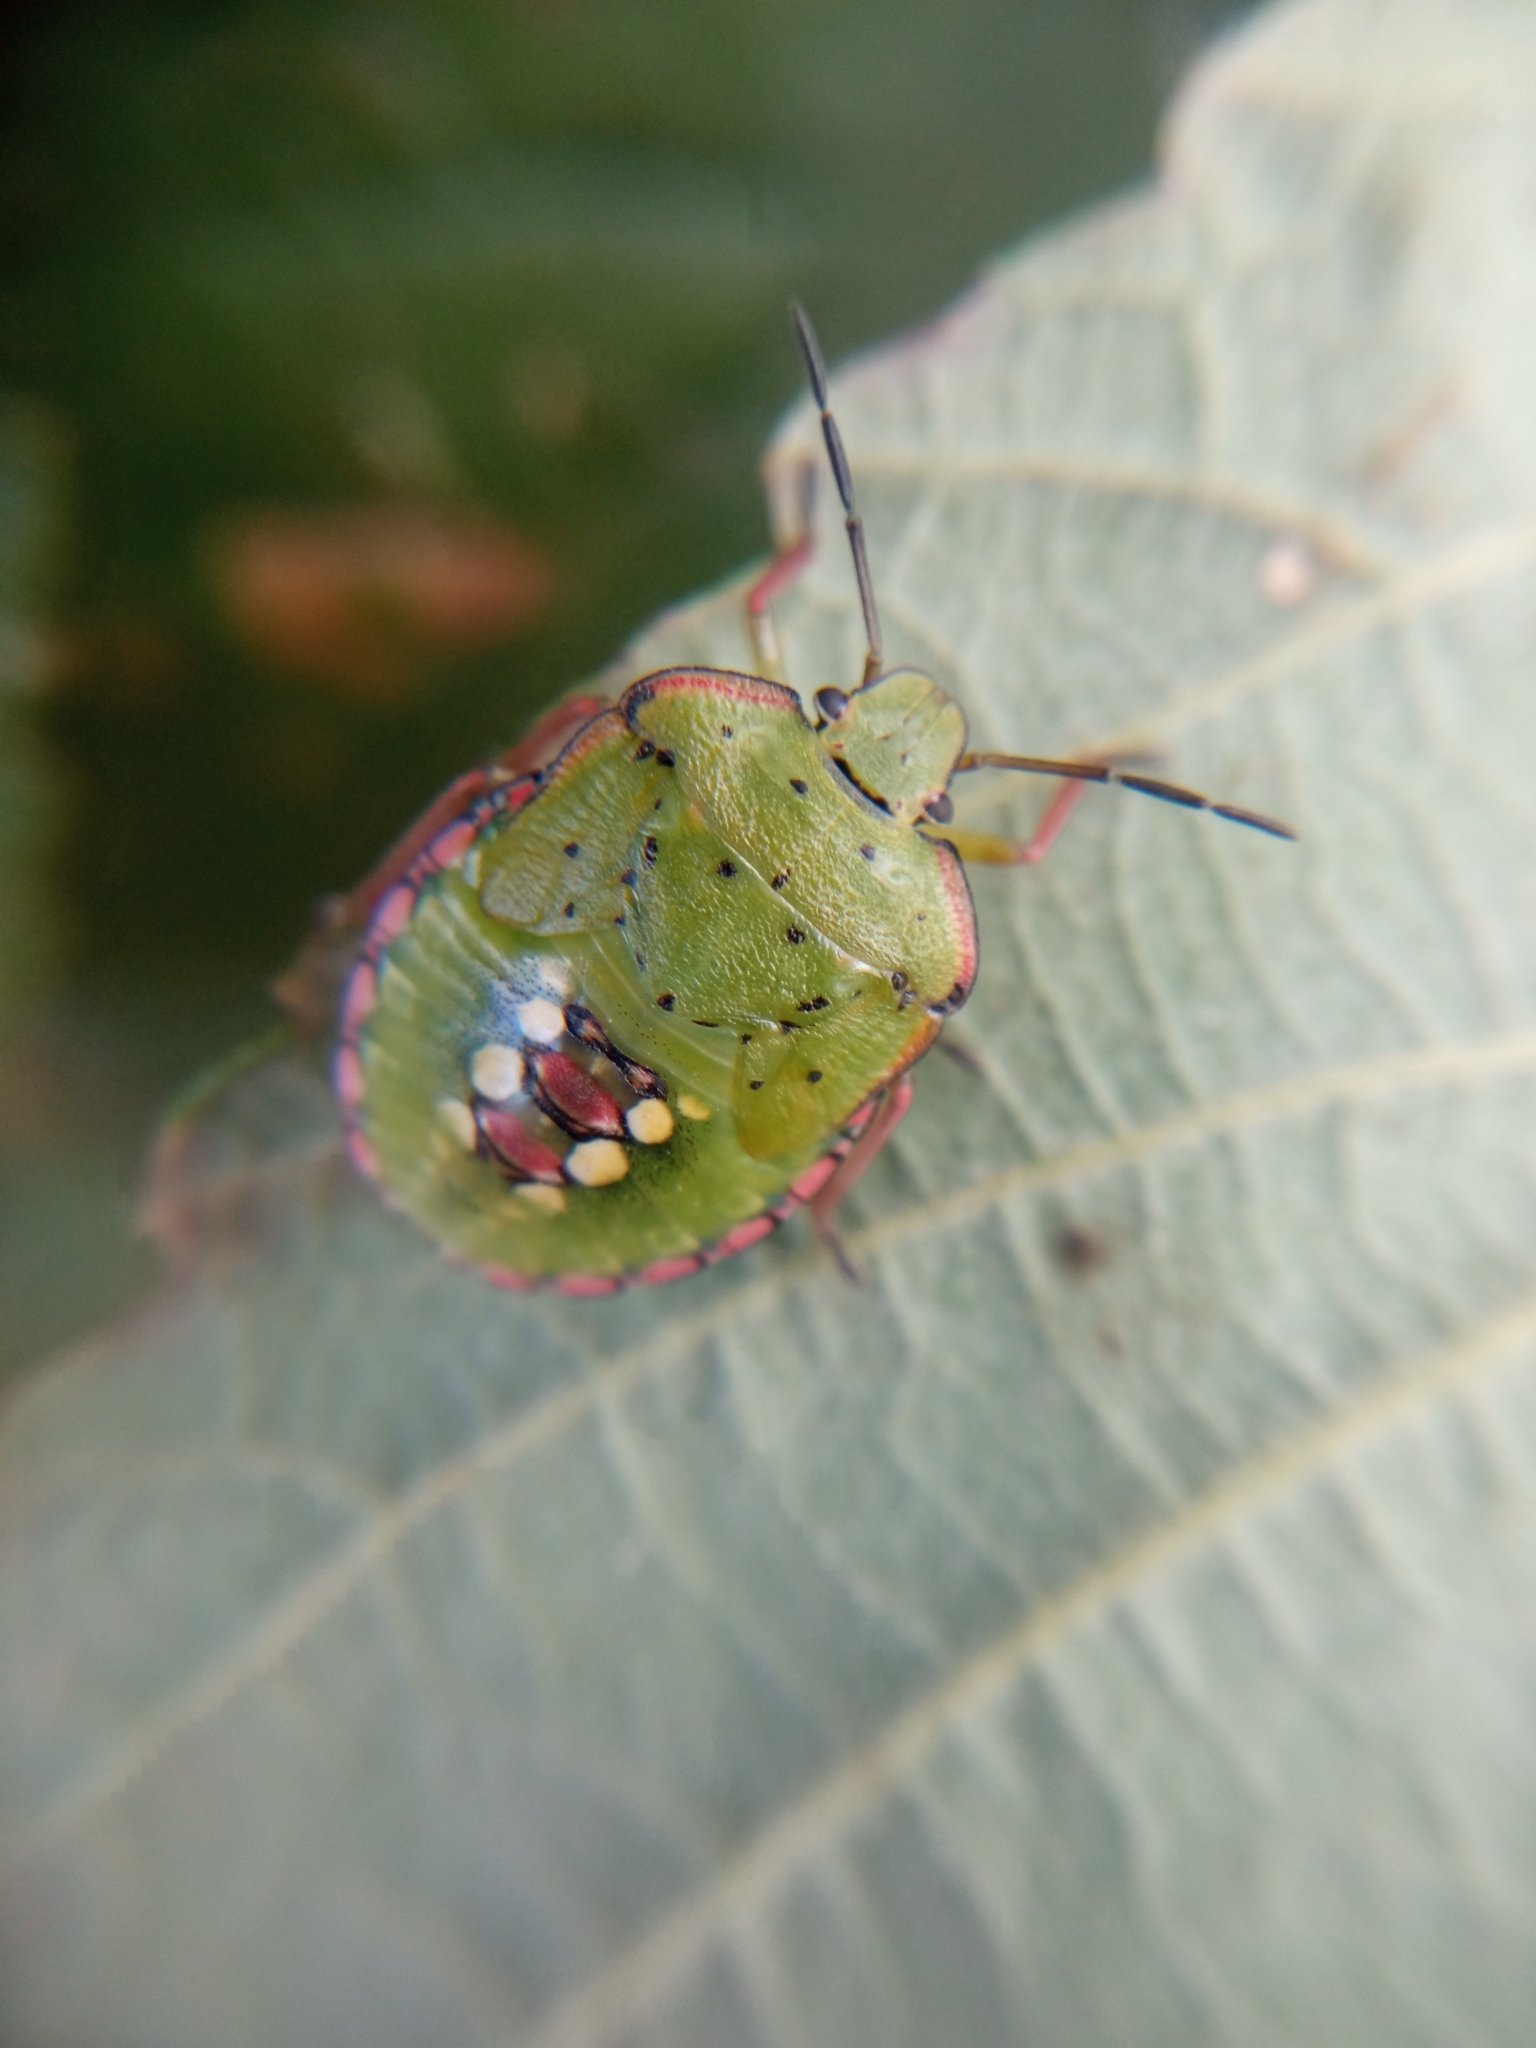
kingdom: Animalia
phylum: Arthropoda
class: Insecta
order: Hemiptera
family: Pentatomidae
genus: Nezara
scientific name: Nezara viridula
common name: Southern green stink bug
